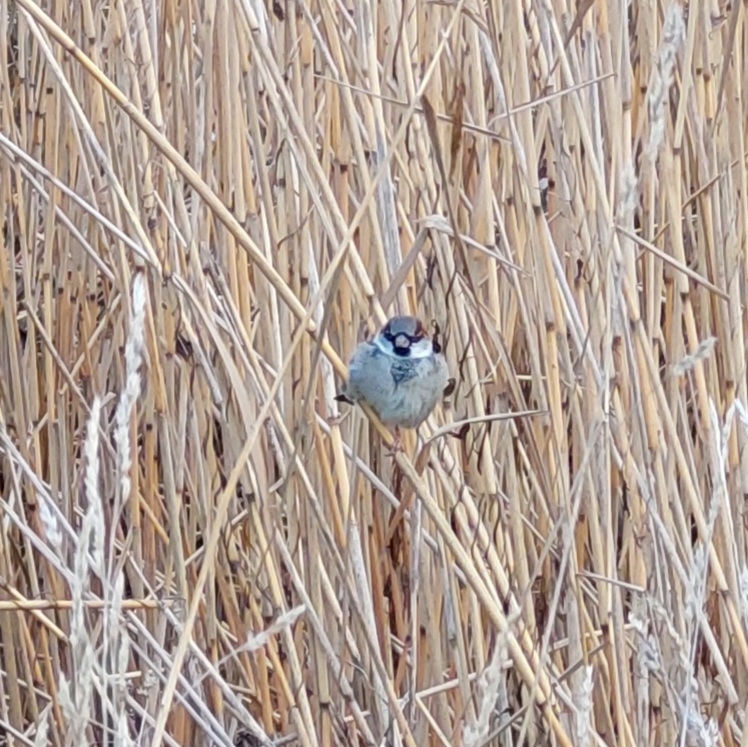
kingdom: Animalia
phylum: Chordata
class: Aves
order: Passeriformes
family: Passeridae
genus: Passer
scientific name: Passer domesticus
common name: House sparrow
